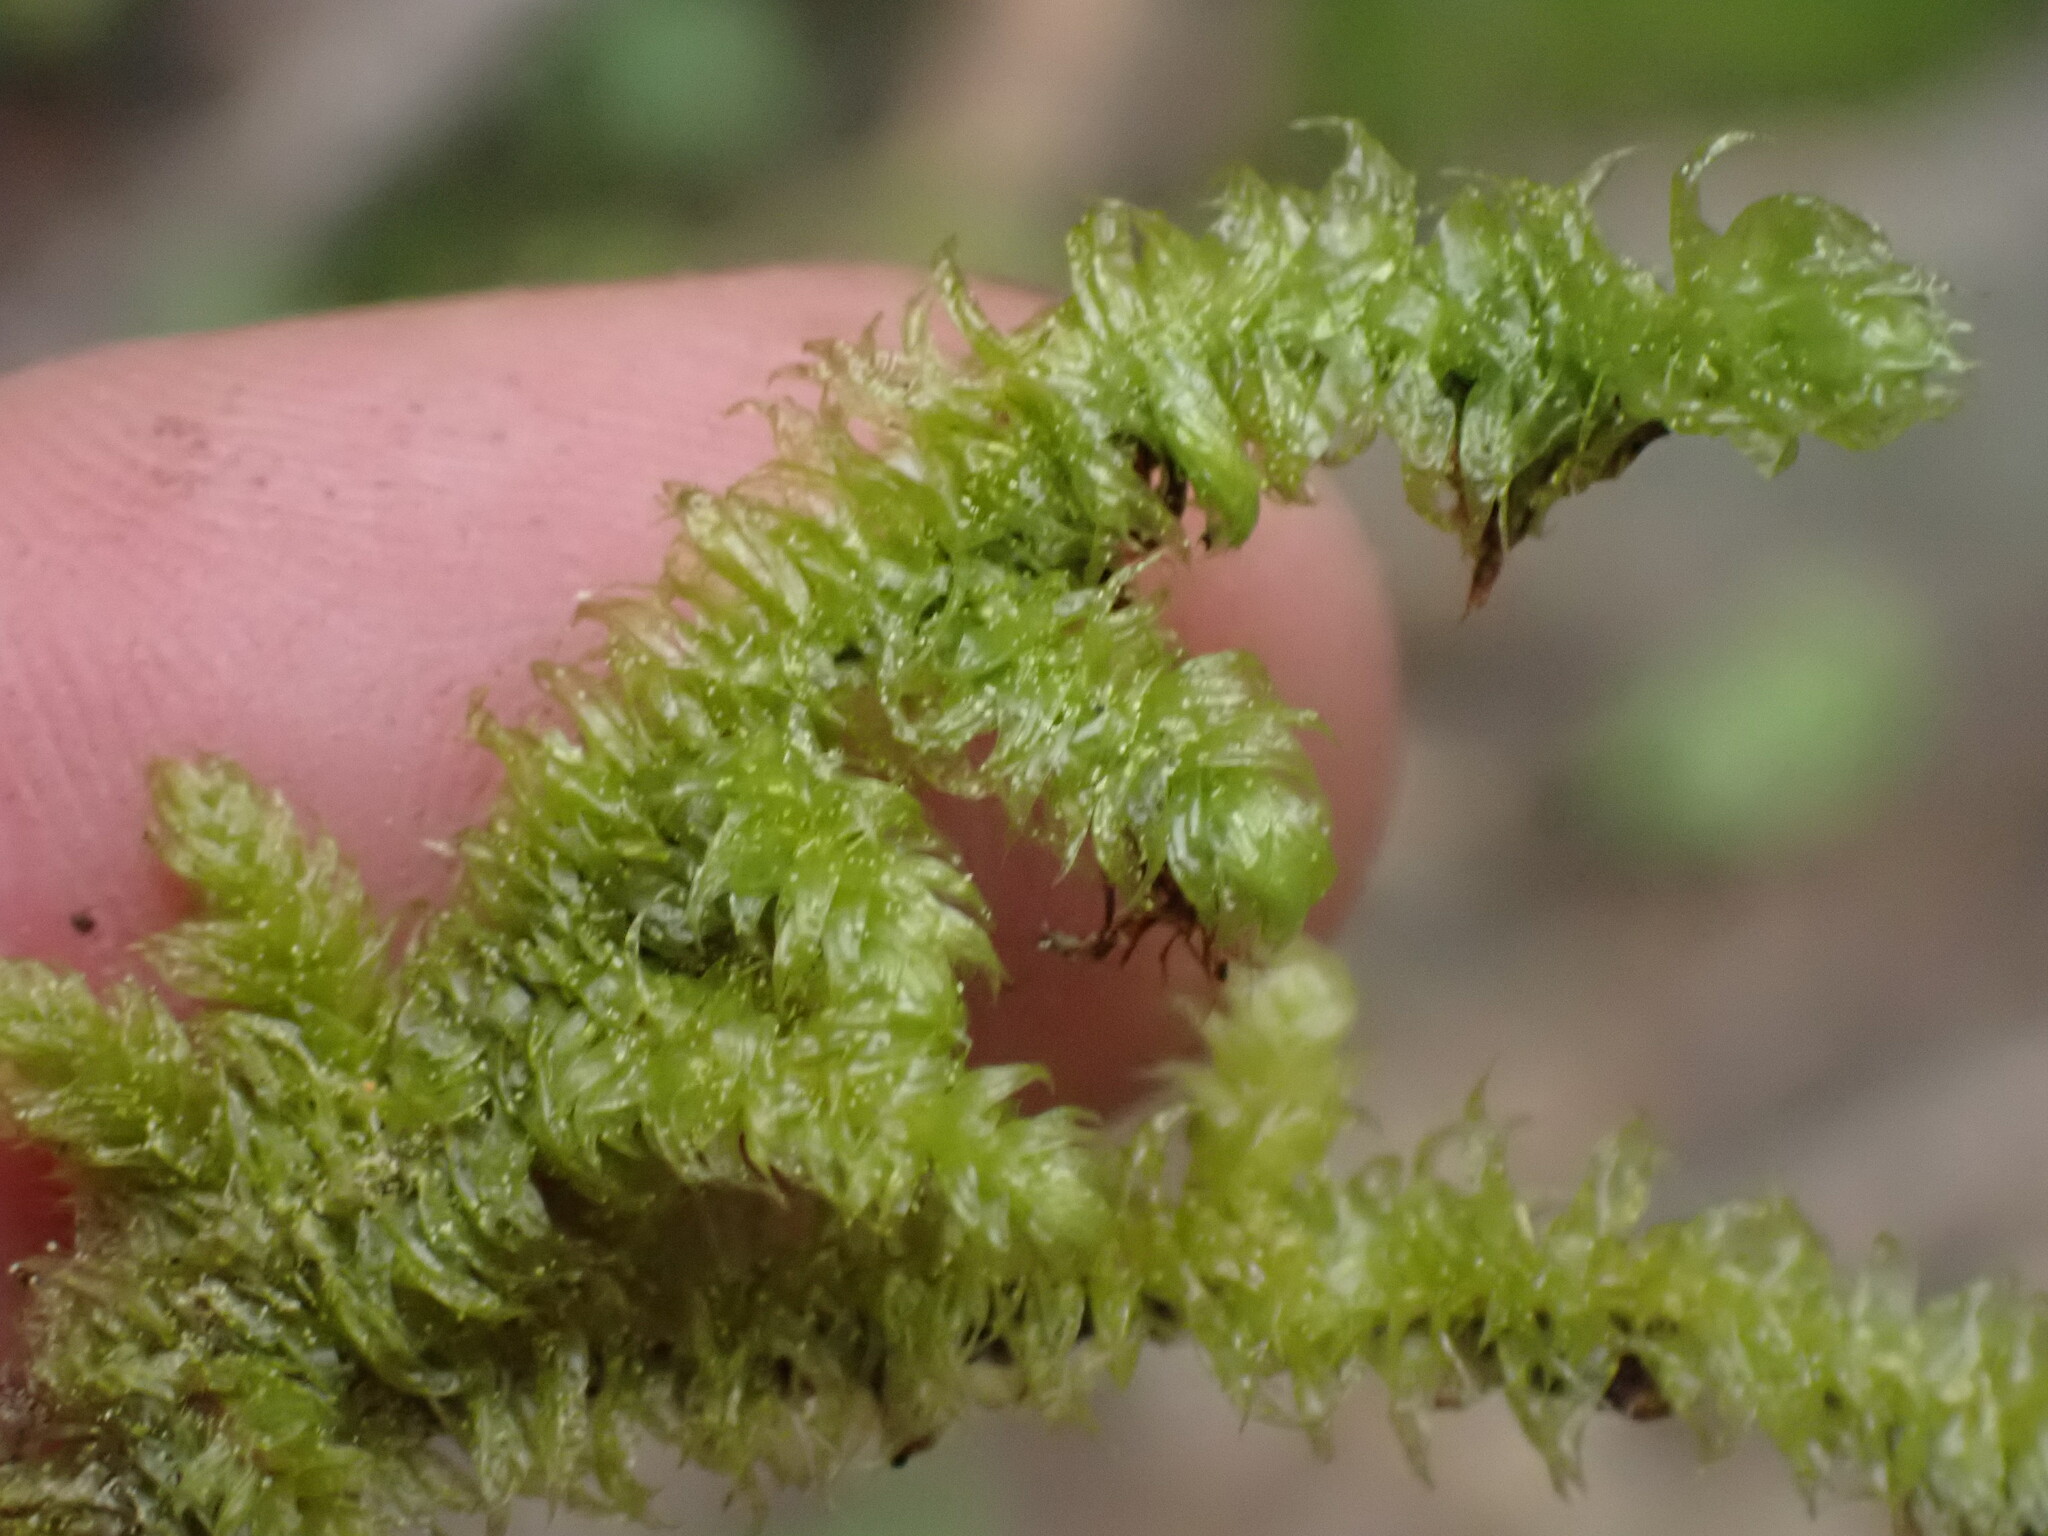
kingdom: Plantae
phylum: Bryophyta
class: Bryopsida
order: Hypnales
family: Hylocomiaceae
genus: Rhytidiopsis
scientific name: Rhytidiopsis robusta
